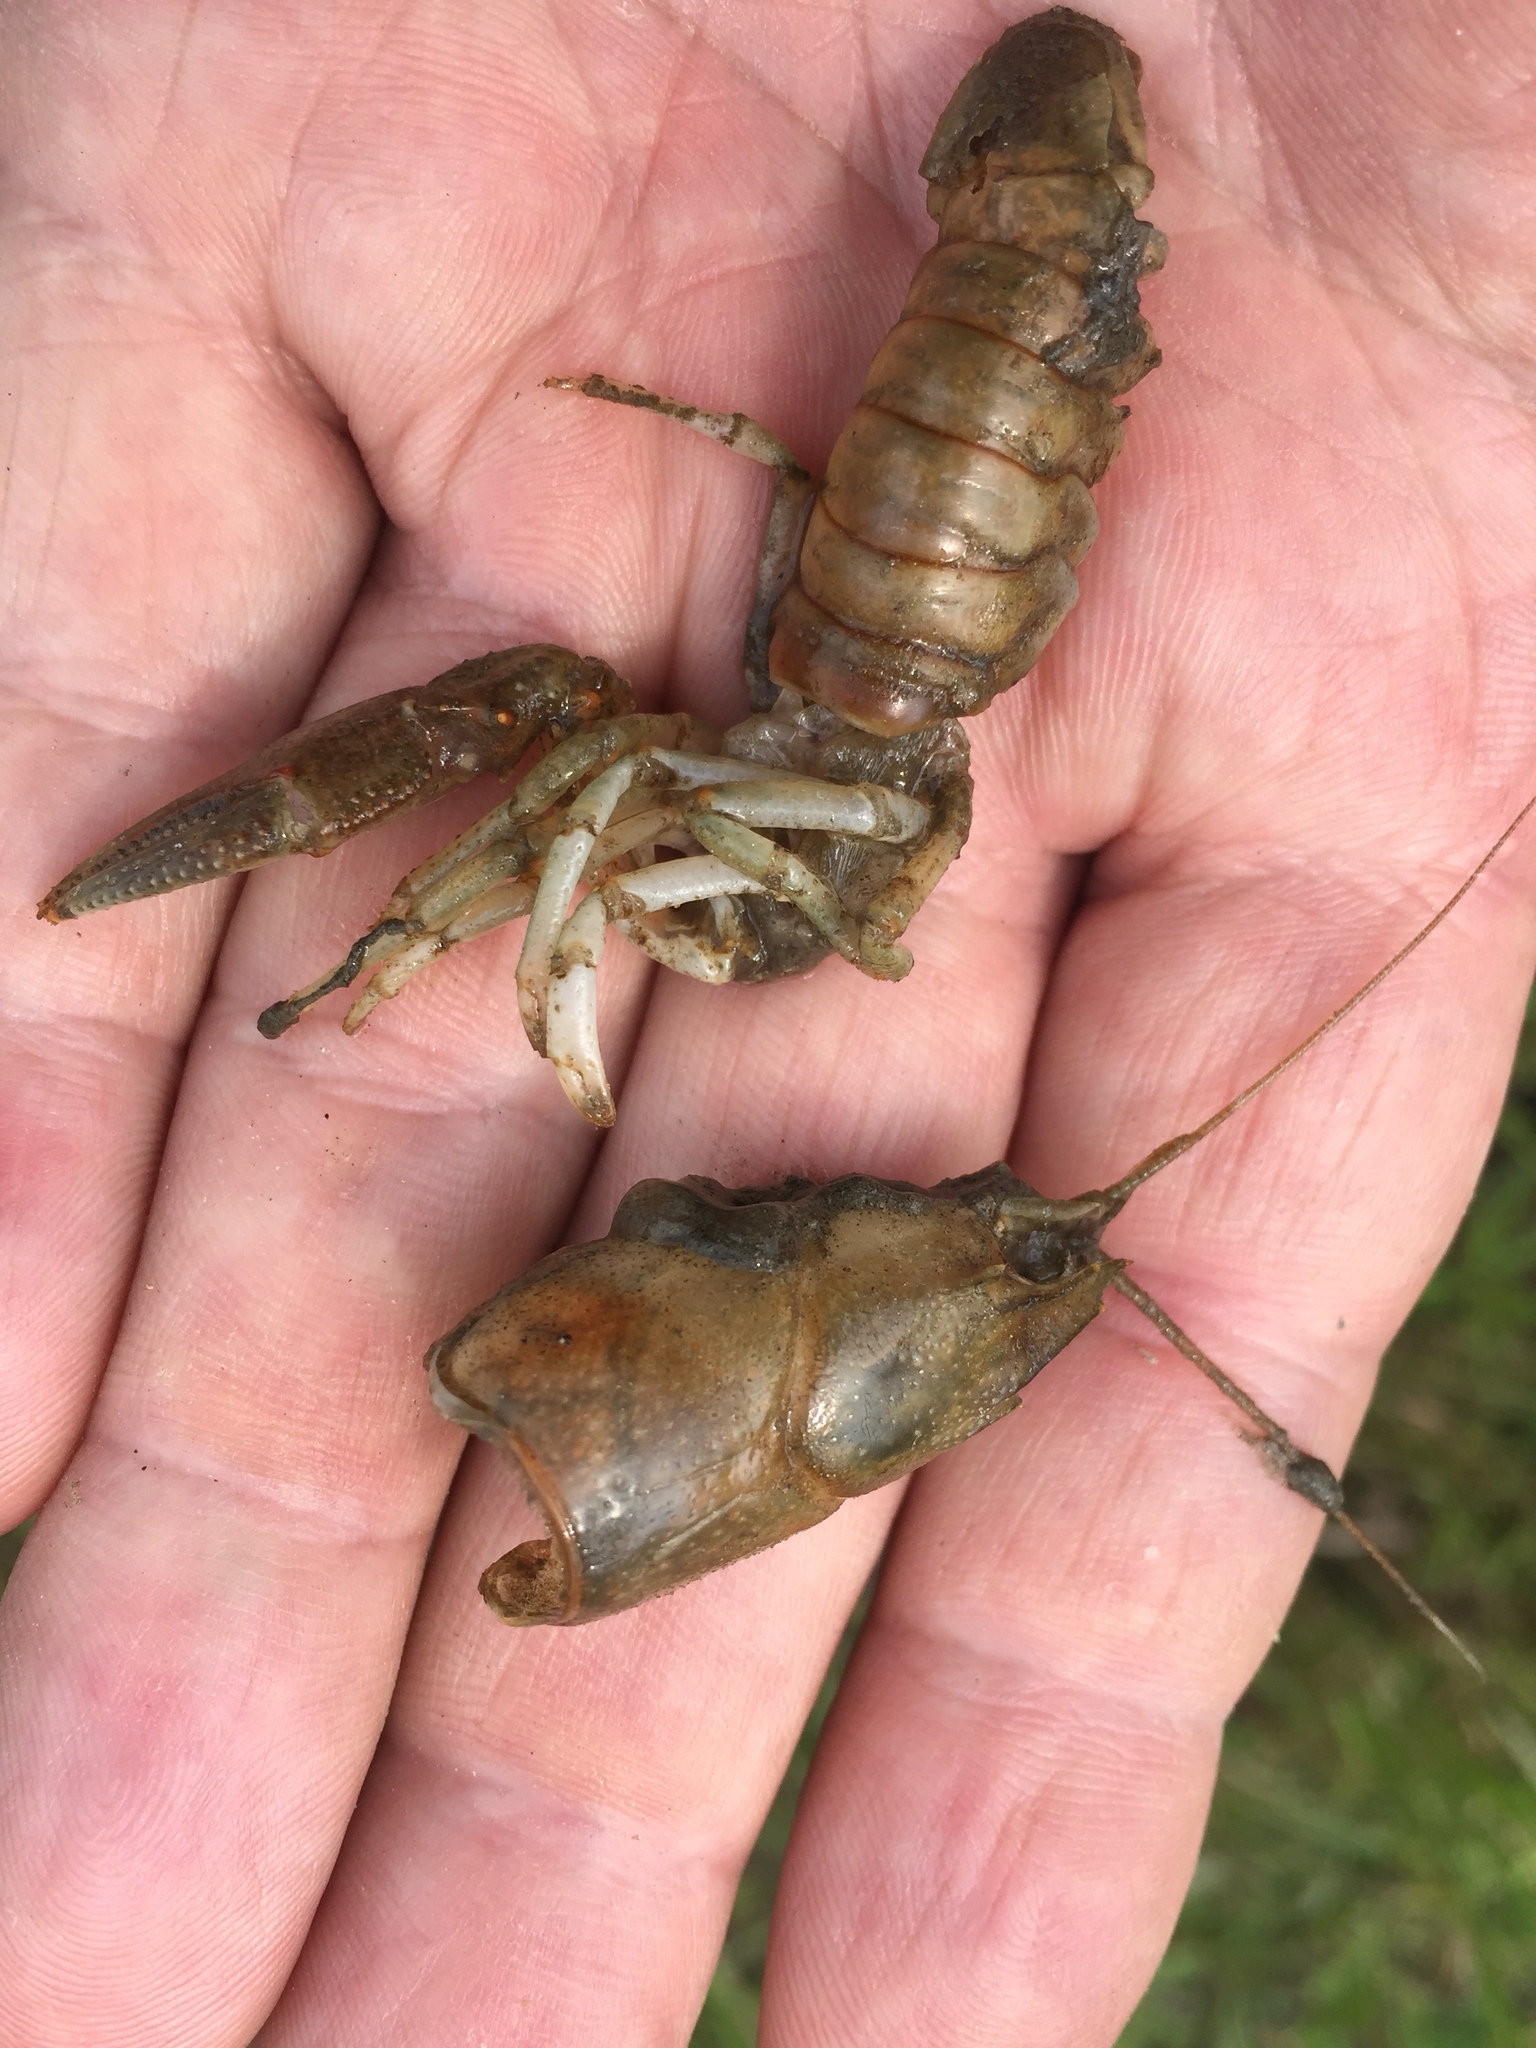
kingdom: Animalia
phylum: Arthropoda
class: Malacostraca
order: Decapoda
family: Cambaridae
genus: Faxonius
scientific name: Faxonius rusticus
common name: Rusty crayfish
